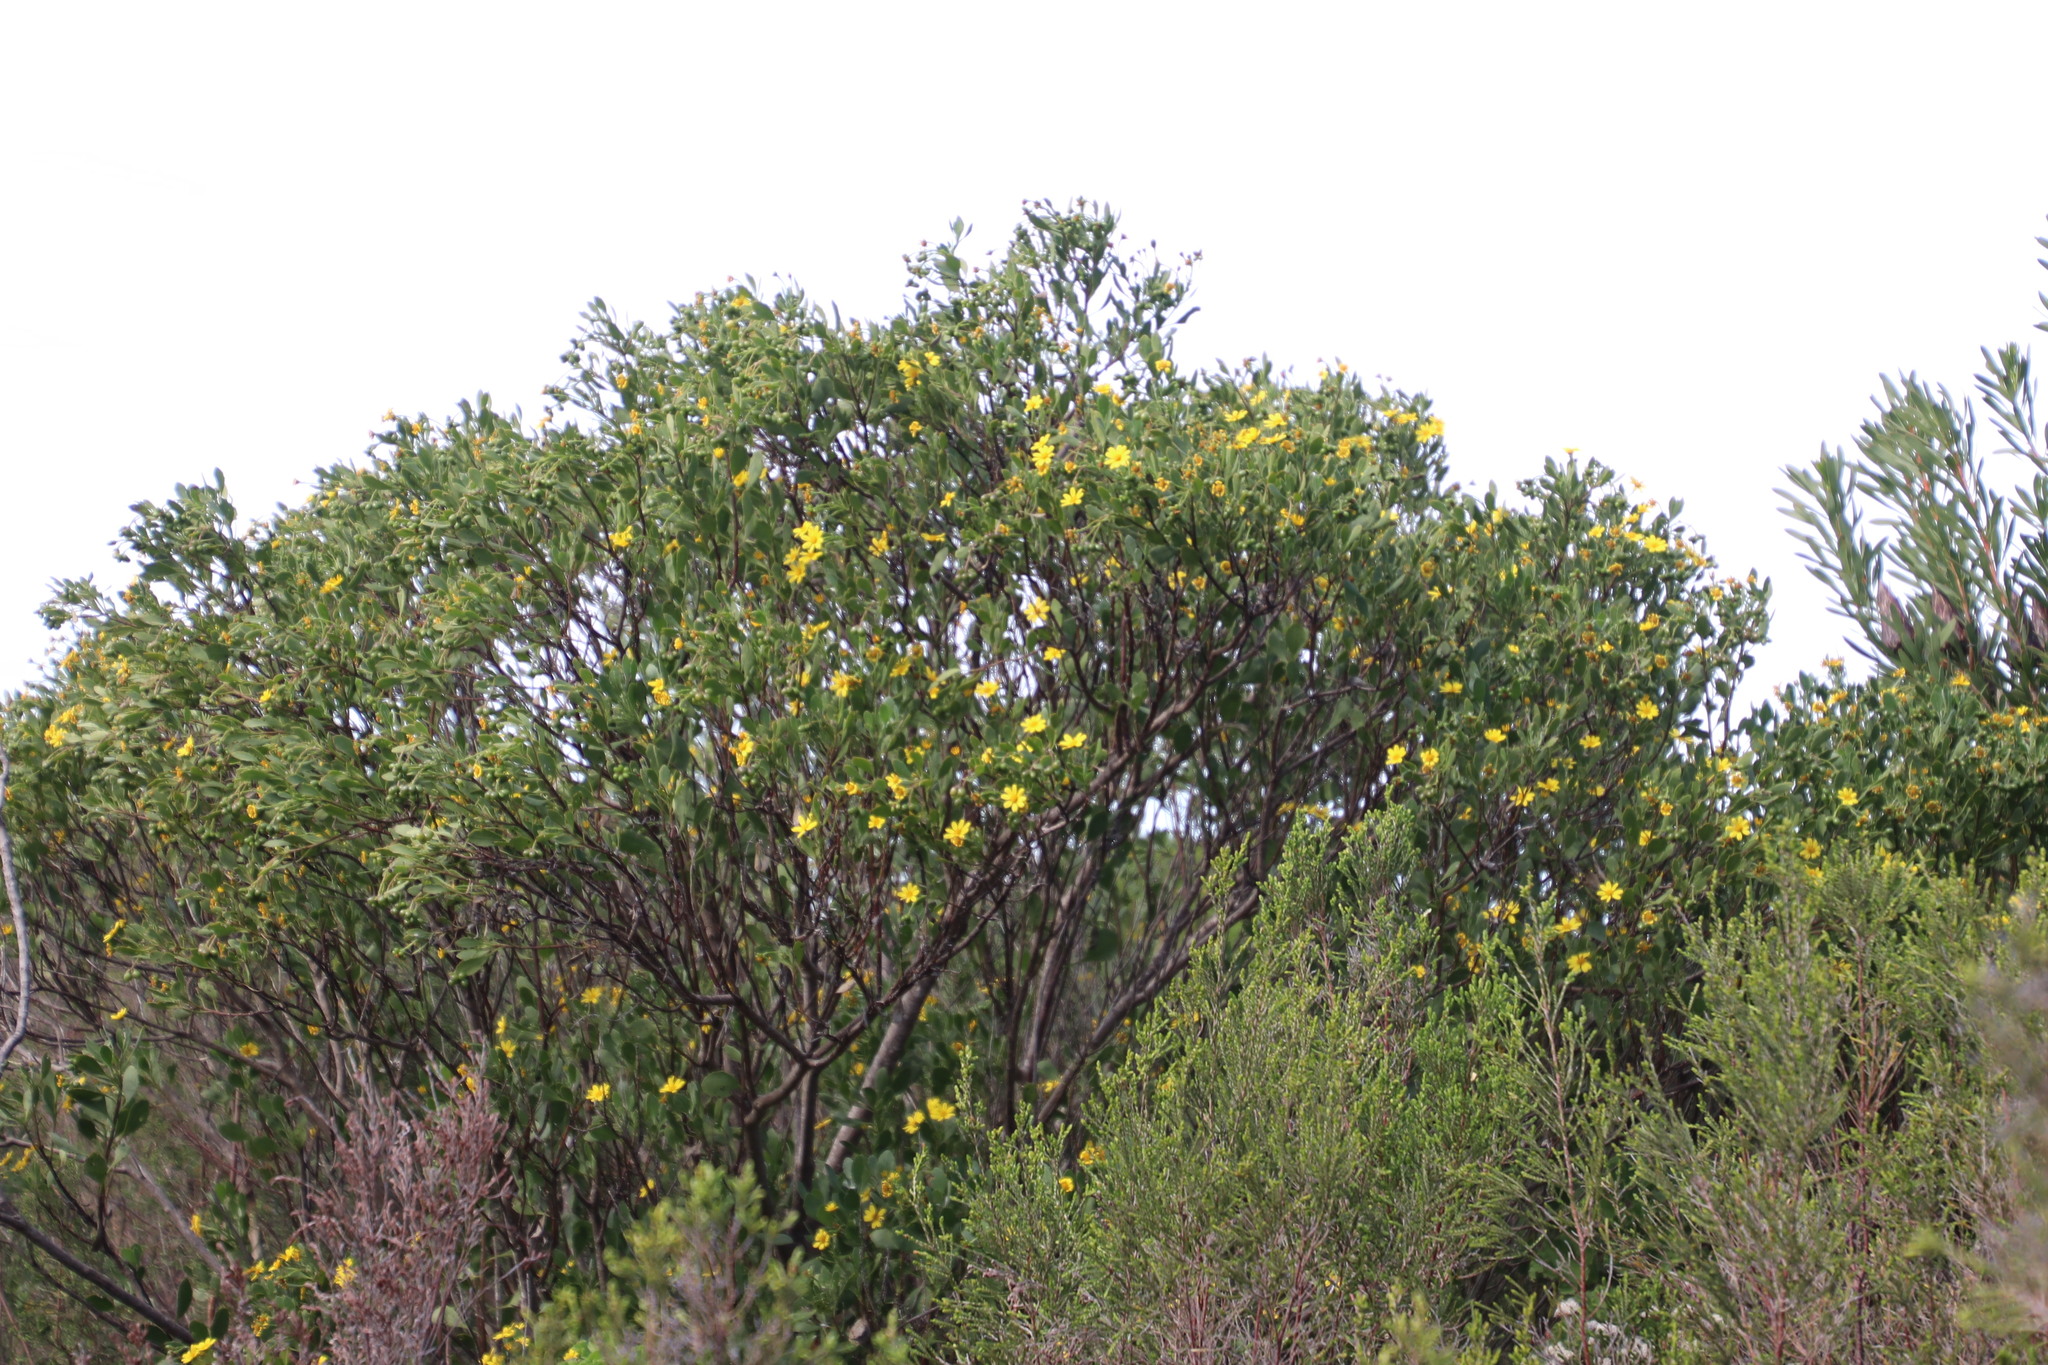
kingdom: Plantae
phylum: Tracheophyta
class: Magnoliopsida
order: Asterales
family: Asteraceae
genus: Osteospermum
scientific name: Osteospermum moniliferum
